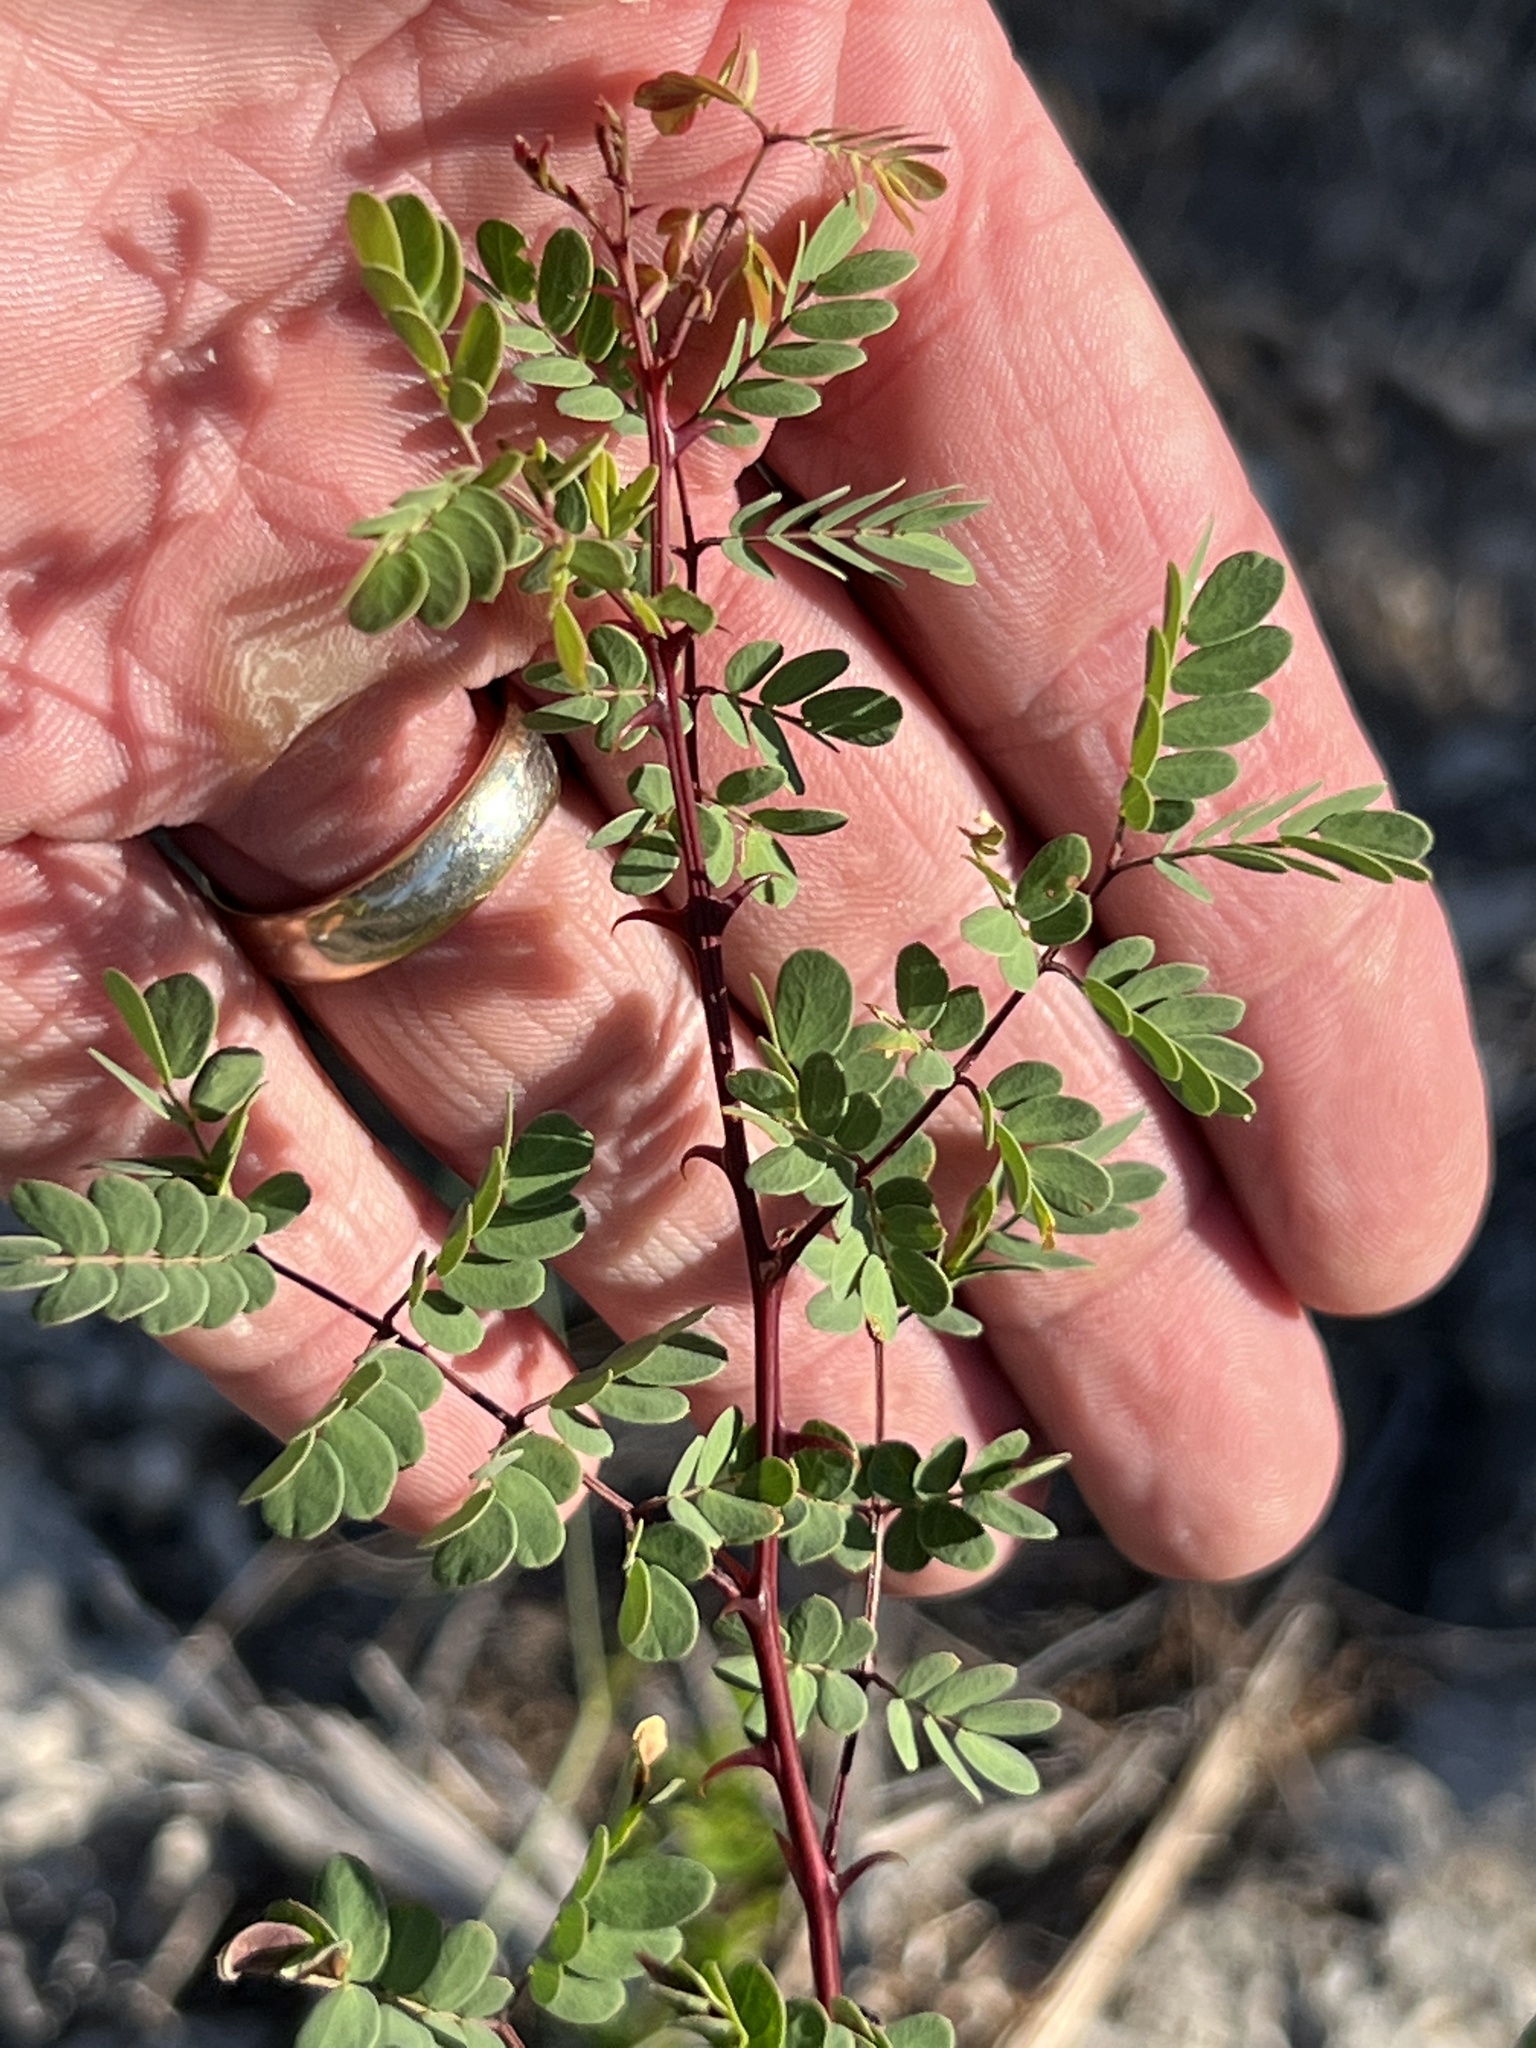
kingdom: Plantae
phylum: Tracheophyta
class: Magnoliopsida
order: Fabales
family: Fabaceae
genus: Senegalia
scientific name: Senegalia roemeriana
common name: Roemer's acacia
